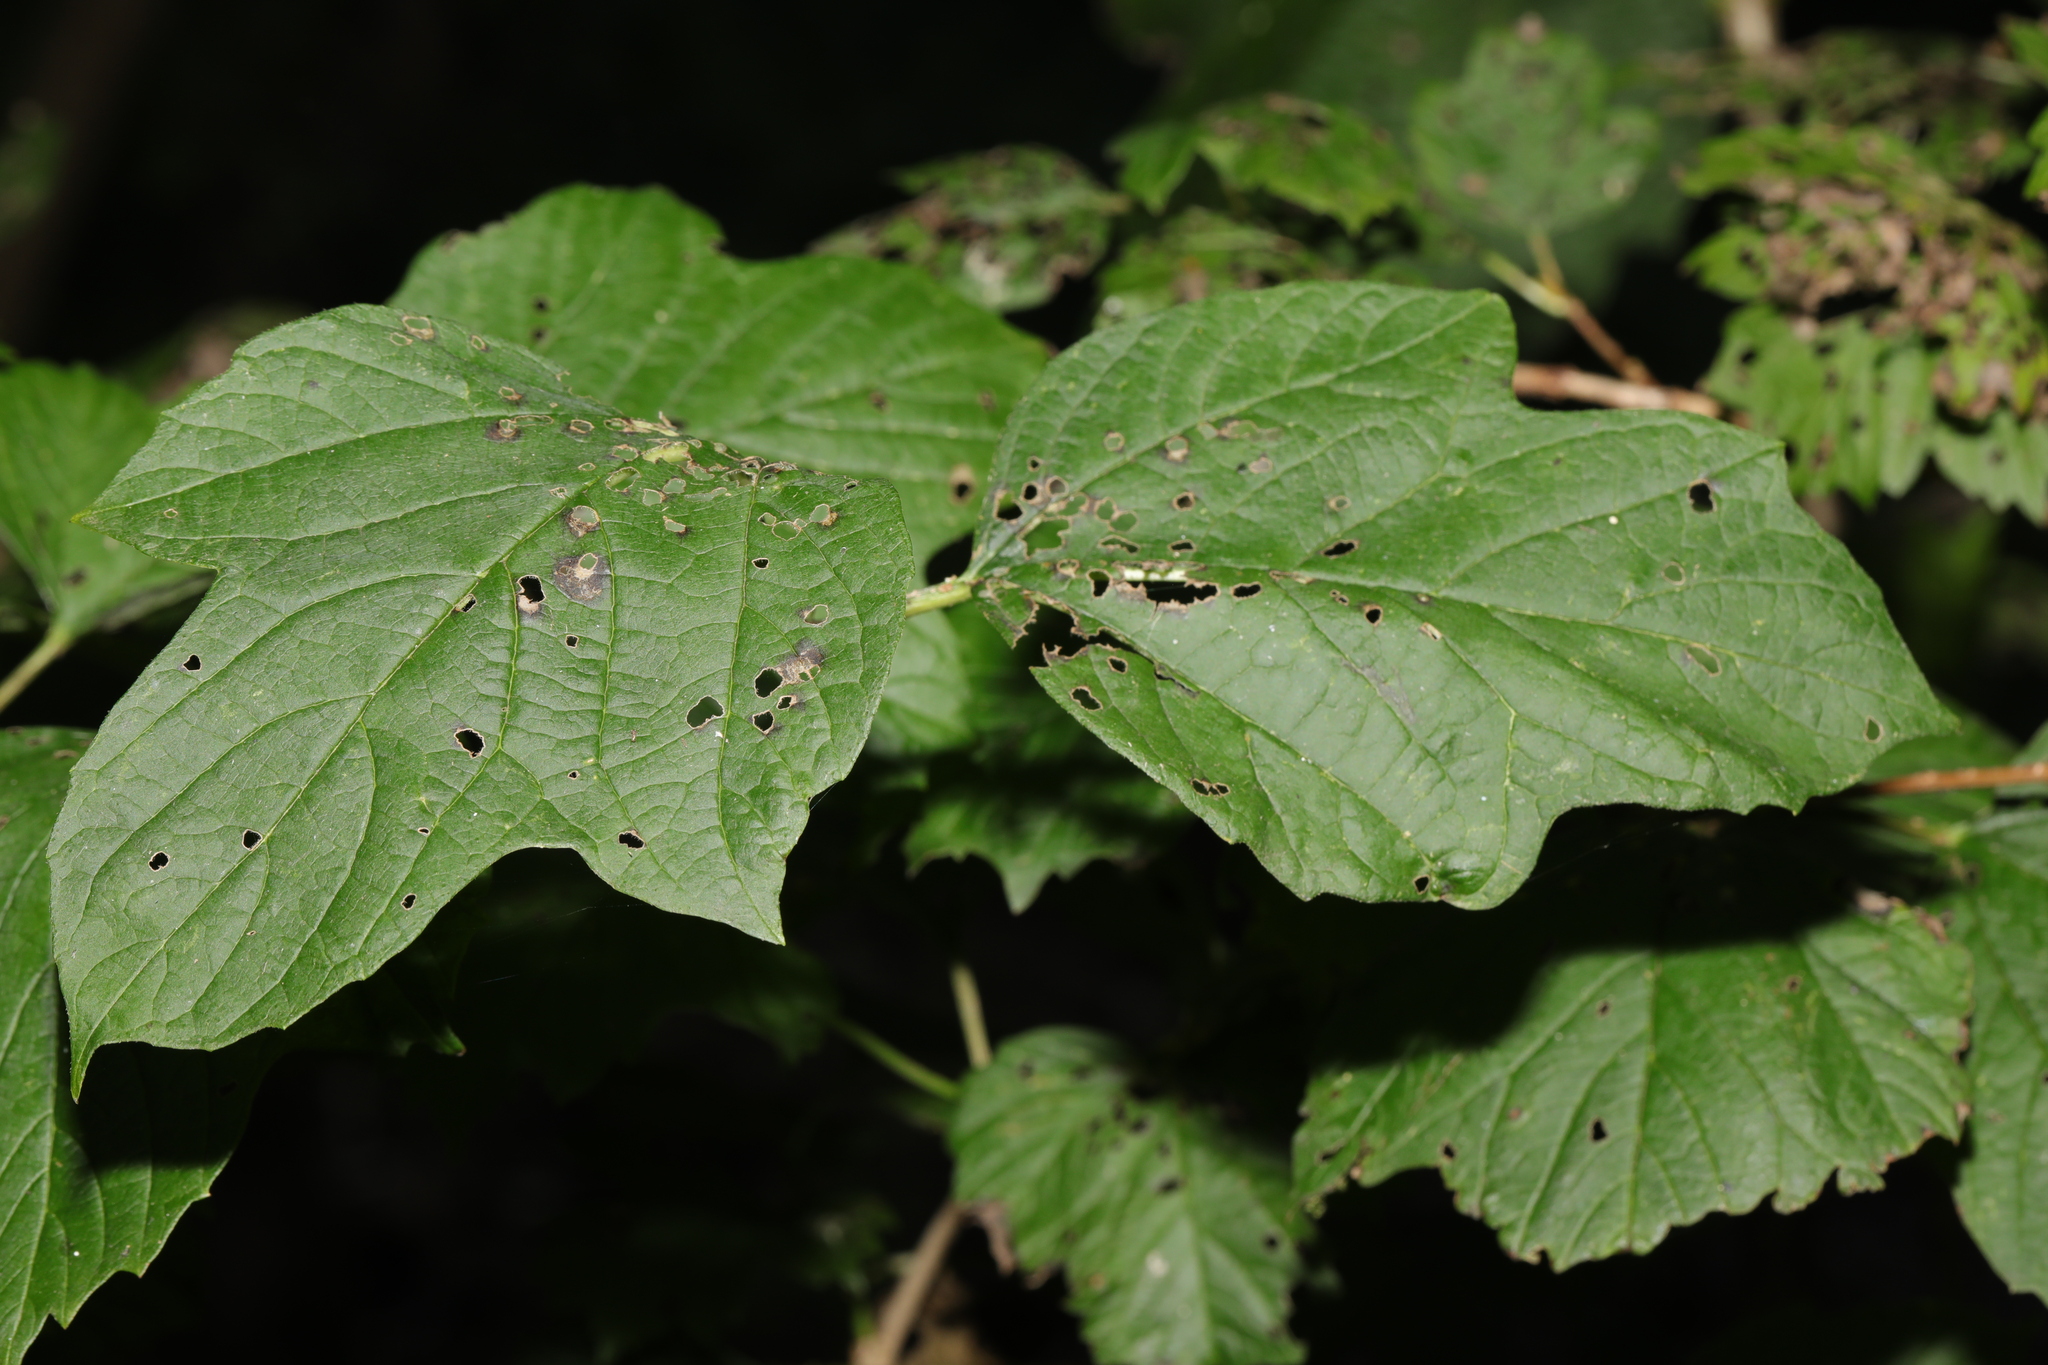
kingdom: Plantae
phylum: Tracheophyta
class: Magnoliopsida
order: Dipsacales
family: Viburnaceae
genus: Viburnum
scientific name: Viburnum opulus
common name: Guelder-rose
